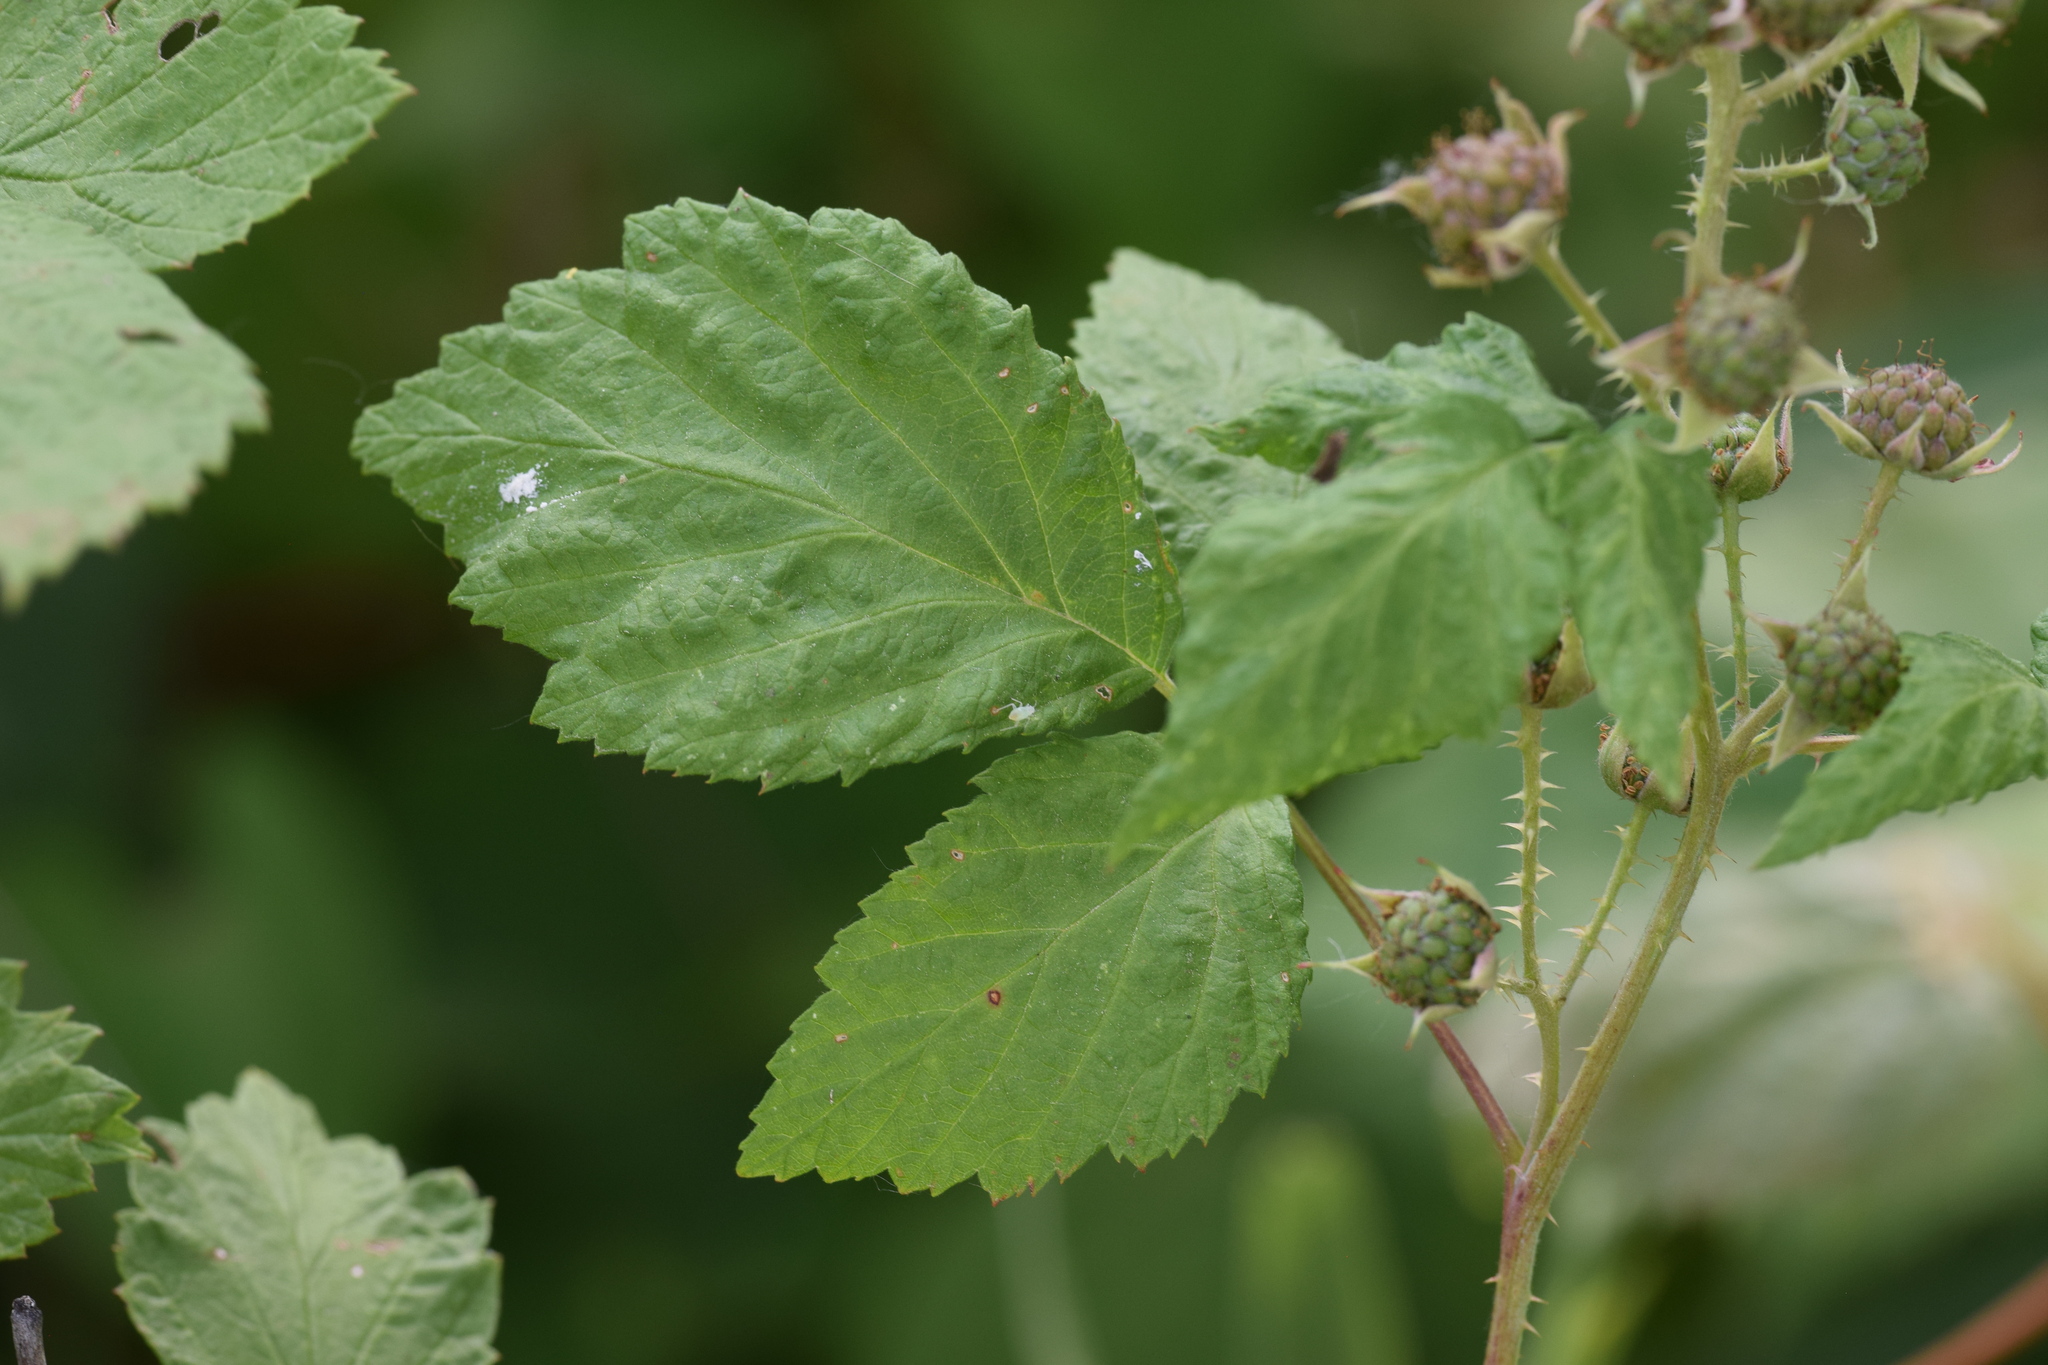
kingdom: Plantae
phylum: Tracheophyta
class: Magnoliopsida
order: Rosales
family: Rosaceae
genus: Rubus
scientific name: Rubus occidentalis
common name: Black raspberry
